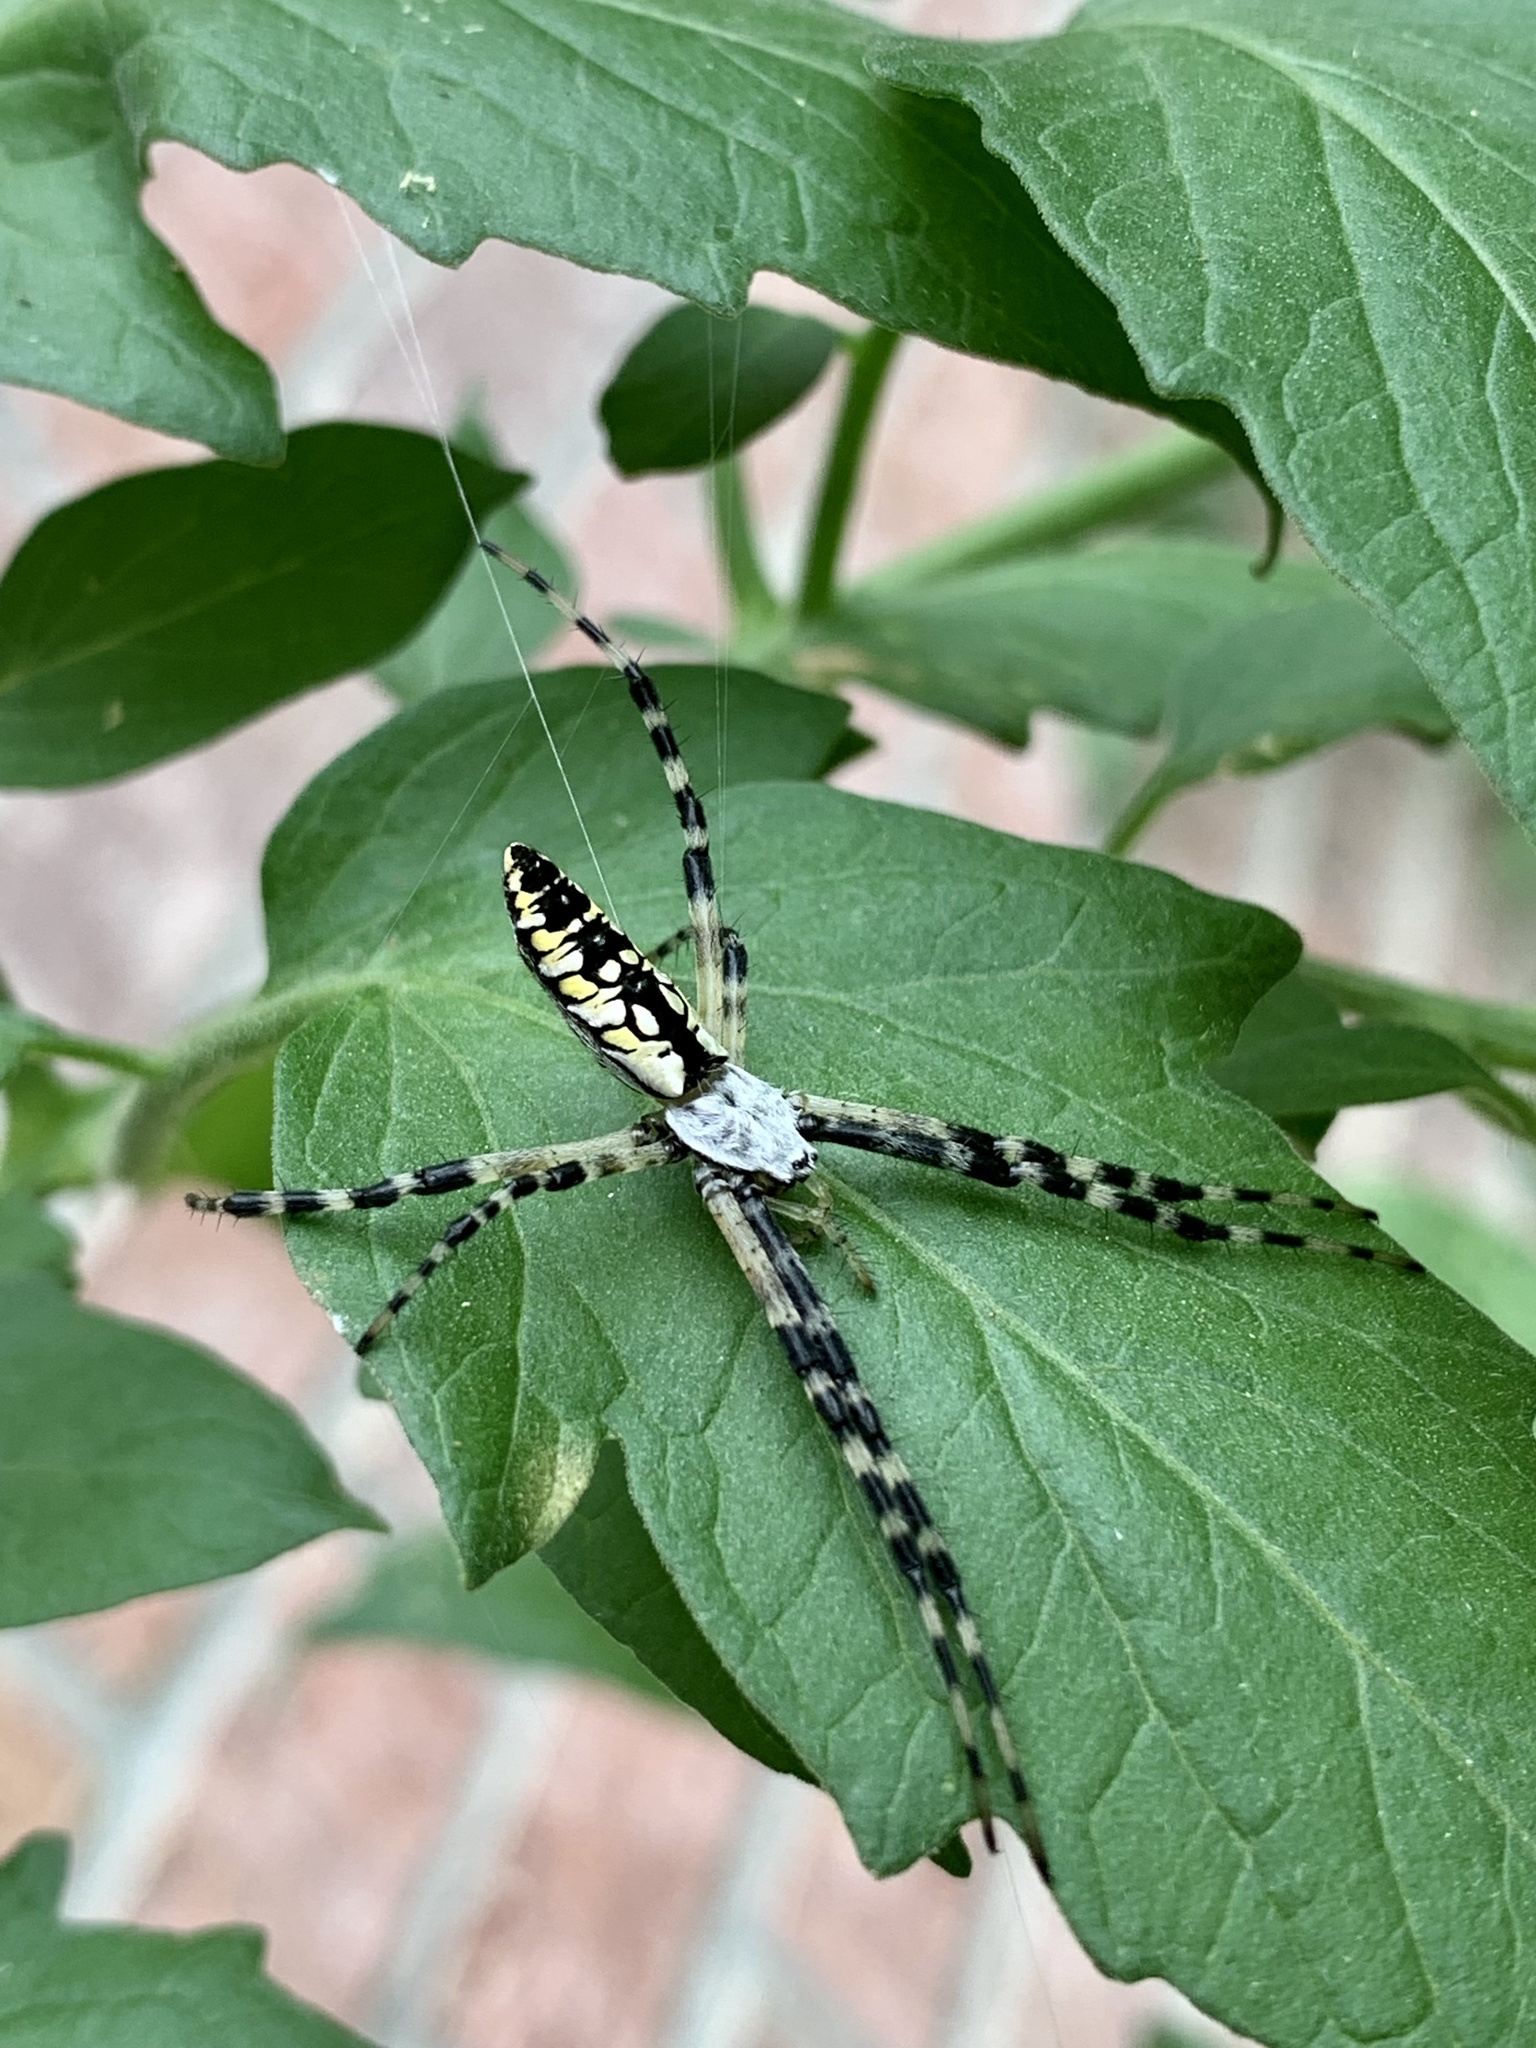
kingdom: Animalia
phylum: Arthropoda
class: Arachnida
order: Araneae
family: Araneidae
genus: Argiope
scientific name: Argiope aurantia
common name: Orb weavers
